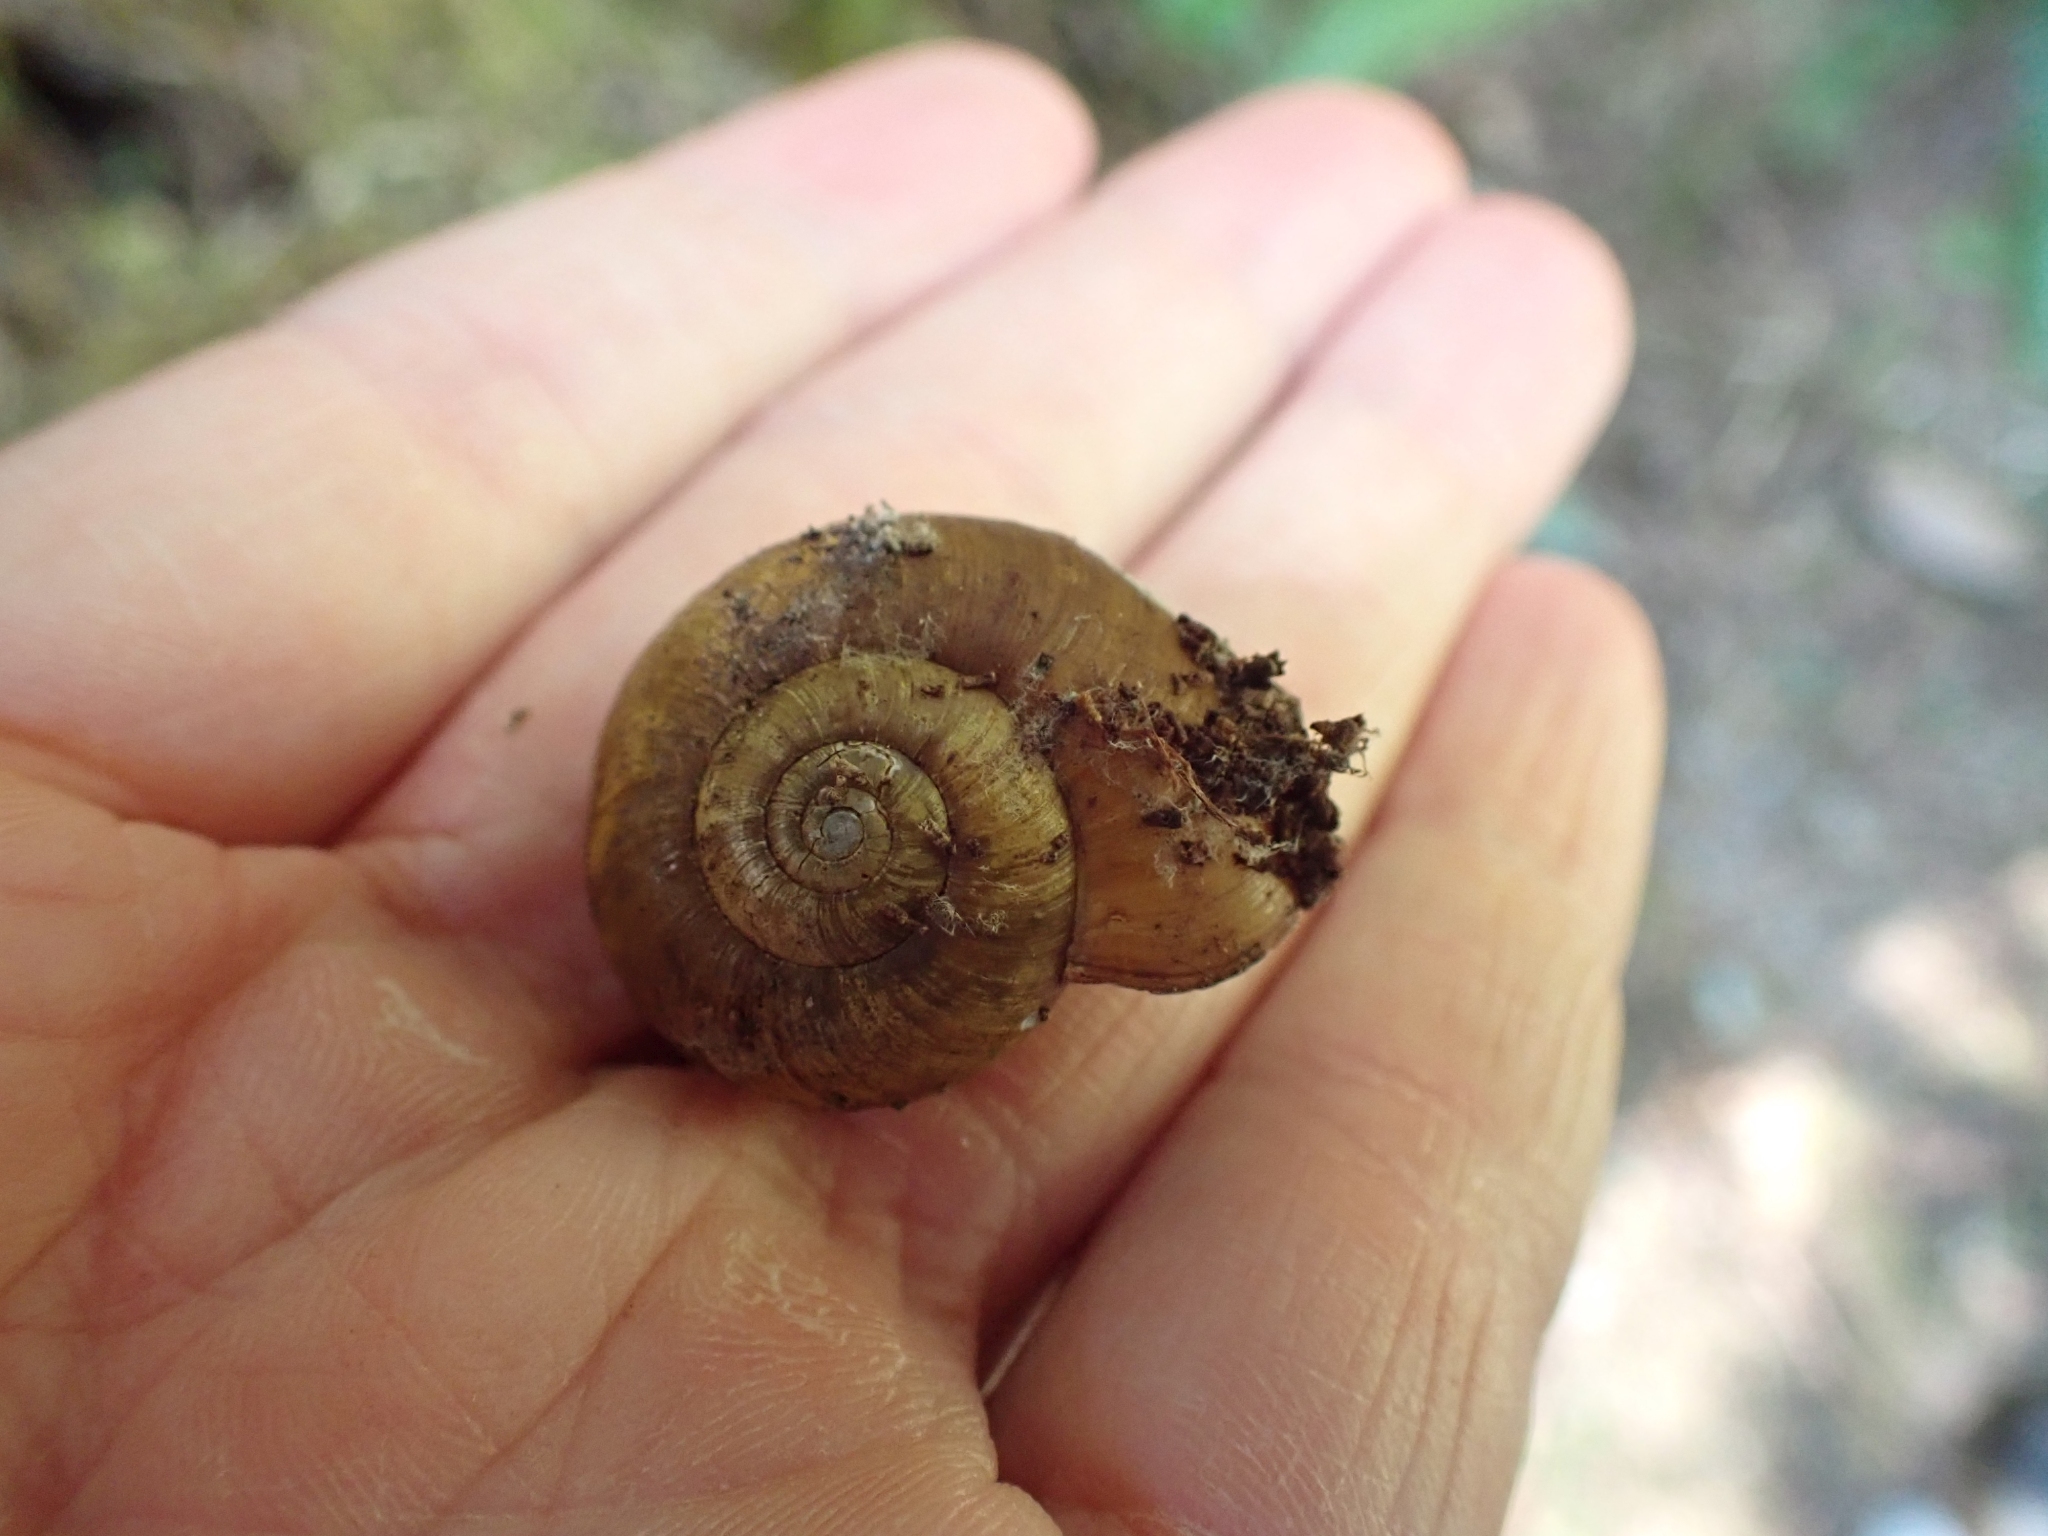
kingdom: Animalia
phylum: Mollusca
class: Gastropoda
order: Stylommatophora
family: Haplotrematidae
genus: Haplotrema
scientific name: Haplotrema vancouverense
